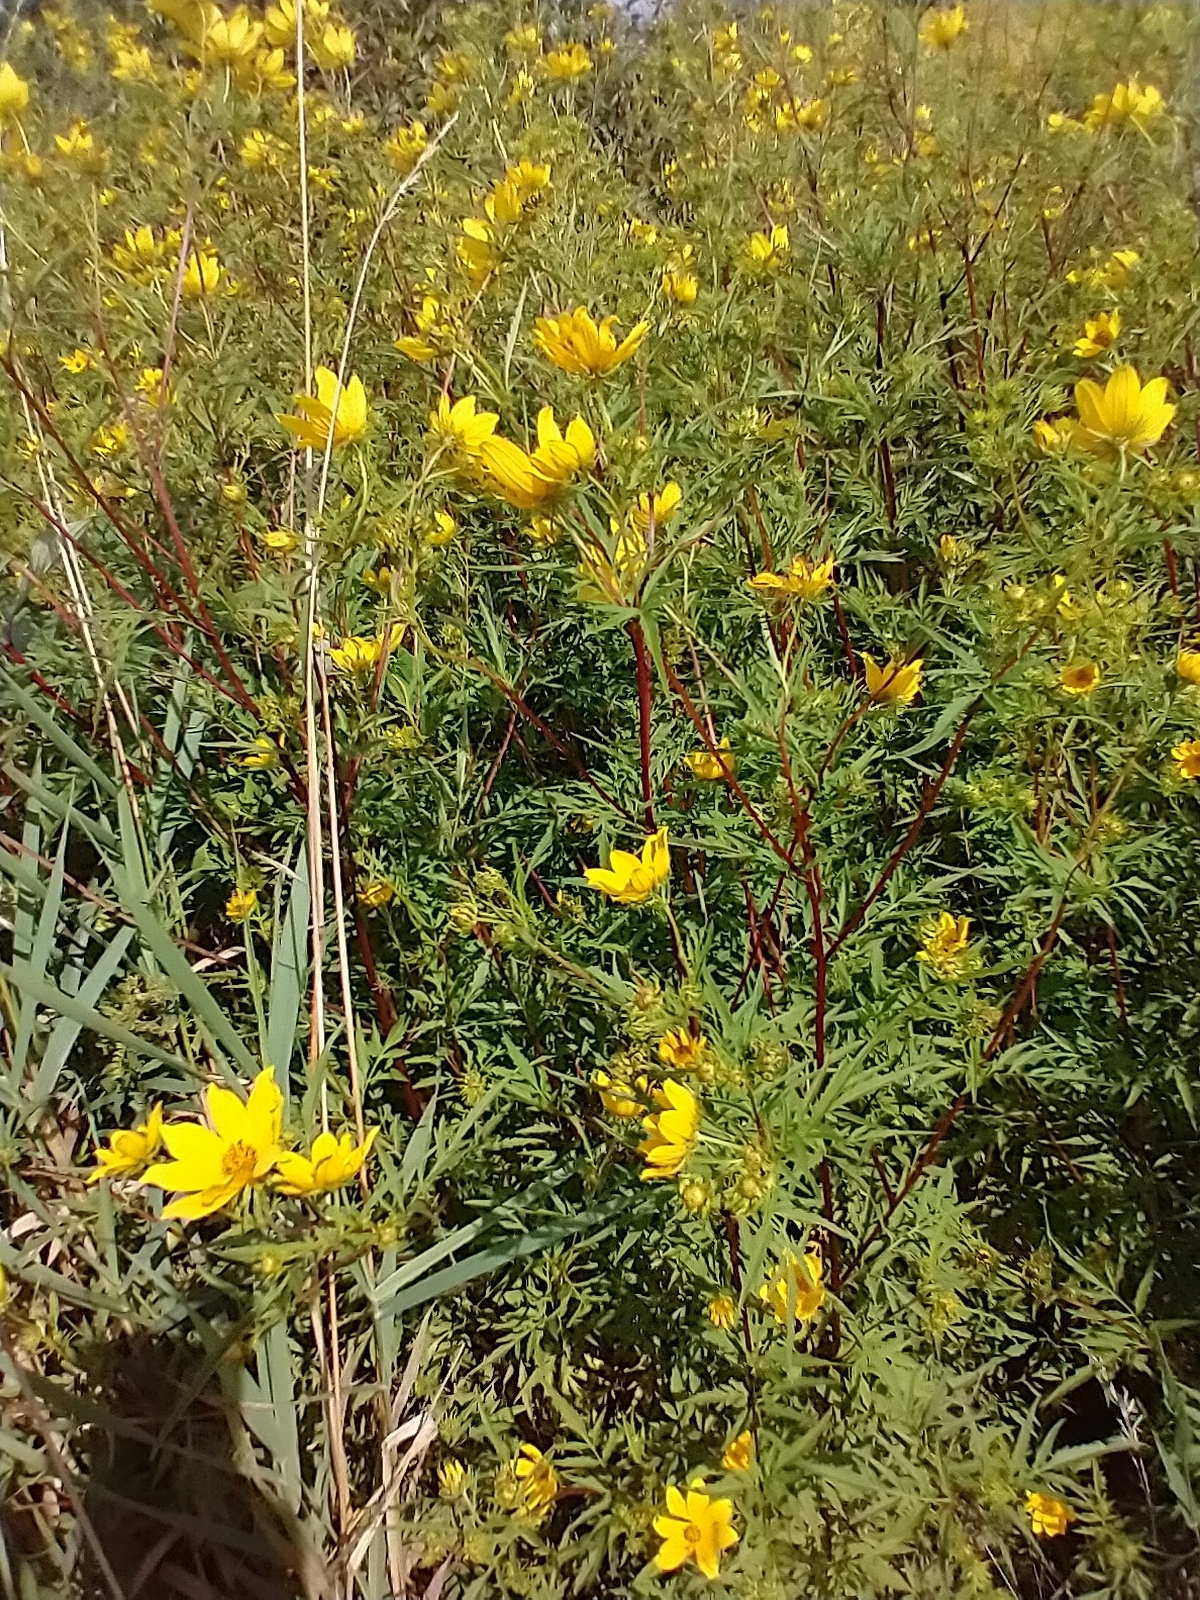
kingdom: Plantae
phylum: Tracheophyta
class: Magnoliopsida
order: Asterales
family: Asteraceae
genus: Bidens
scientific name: Bidens polylepis
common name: Awnless beggarticks
